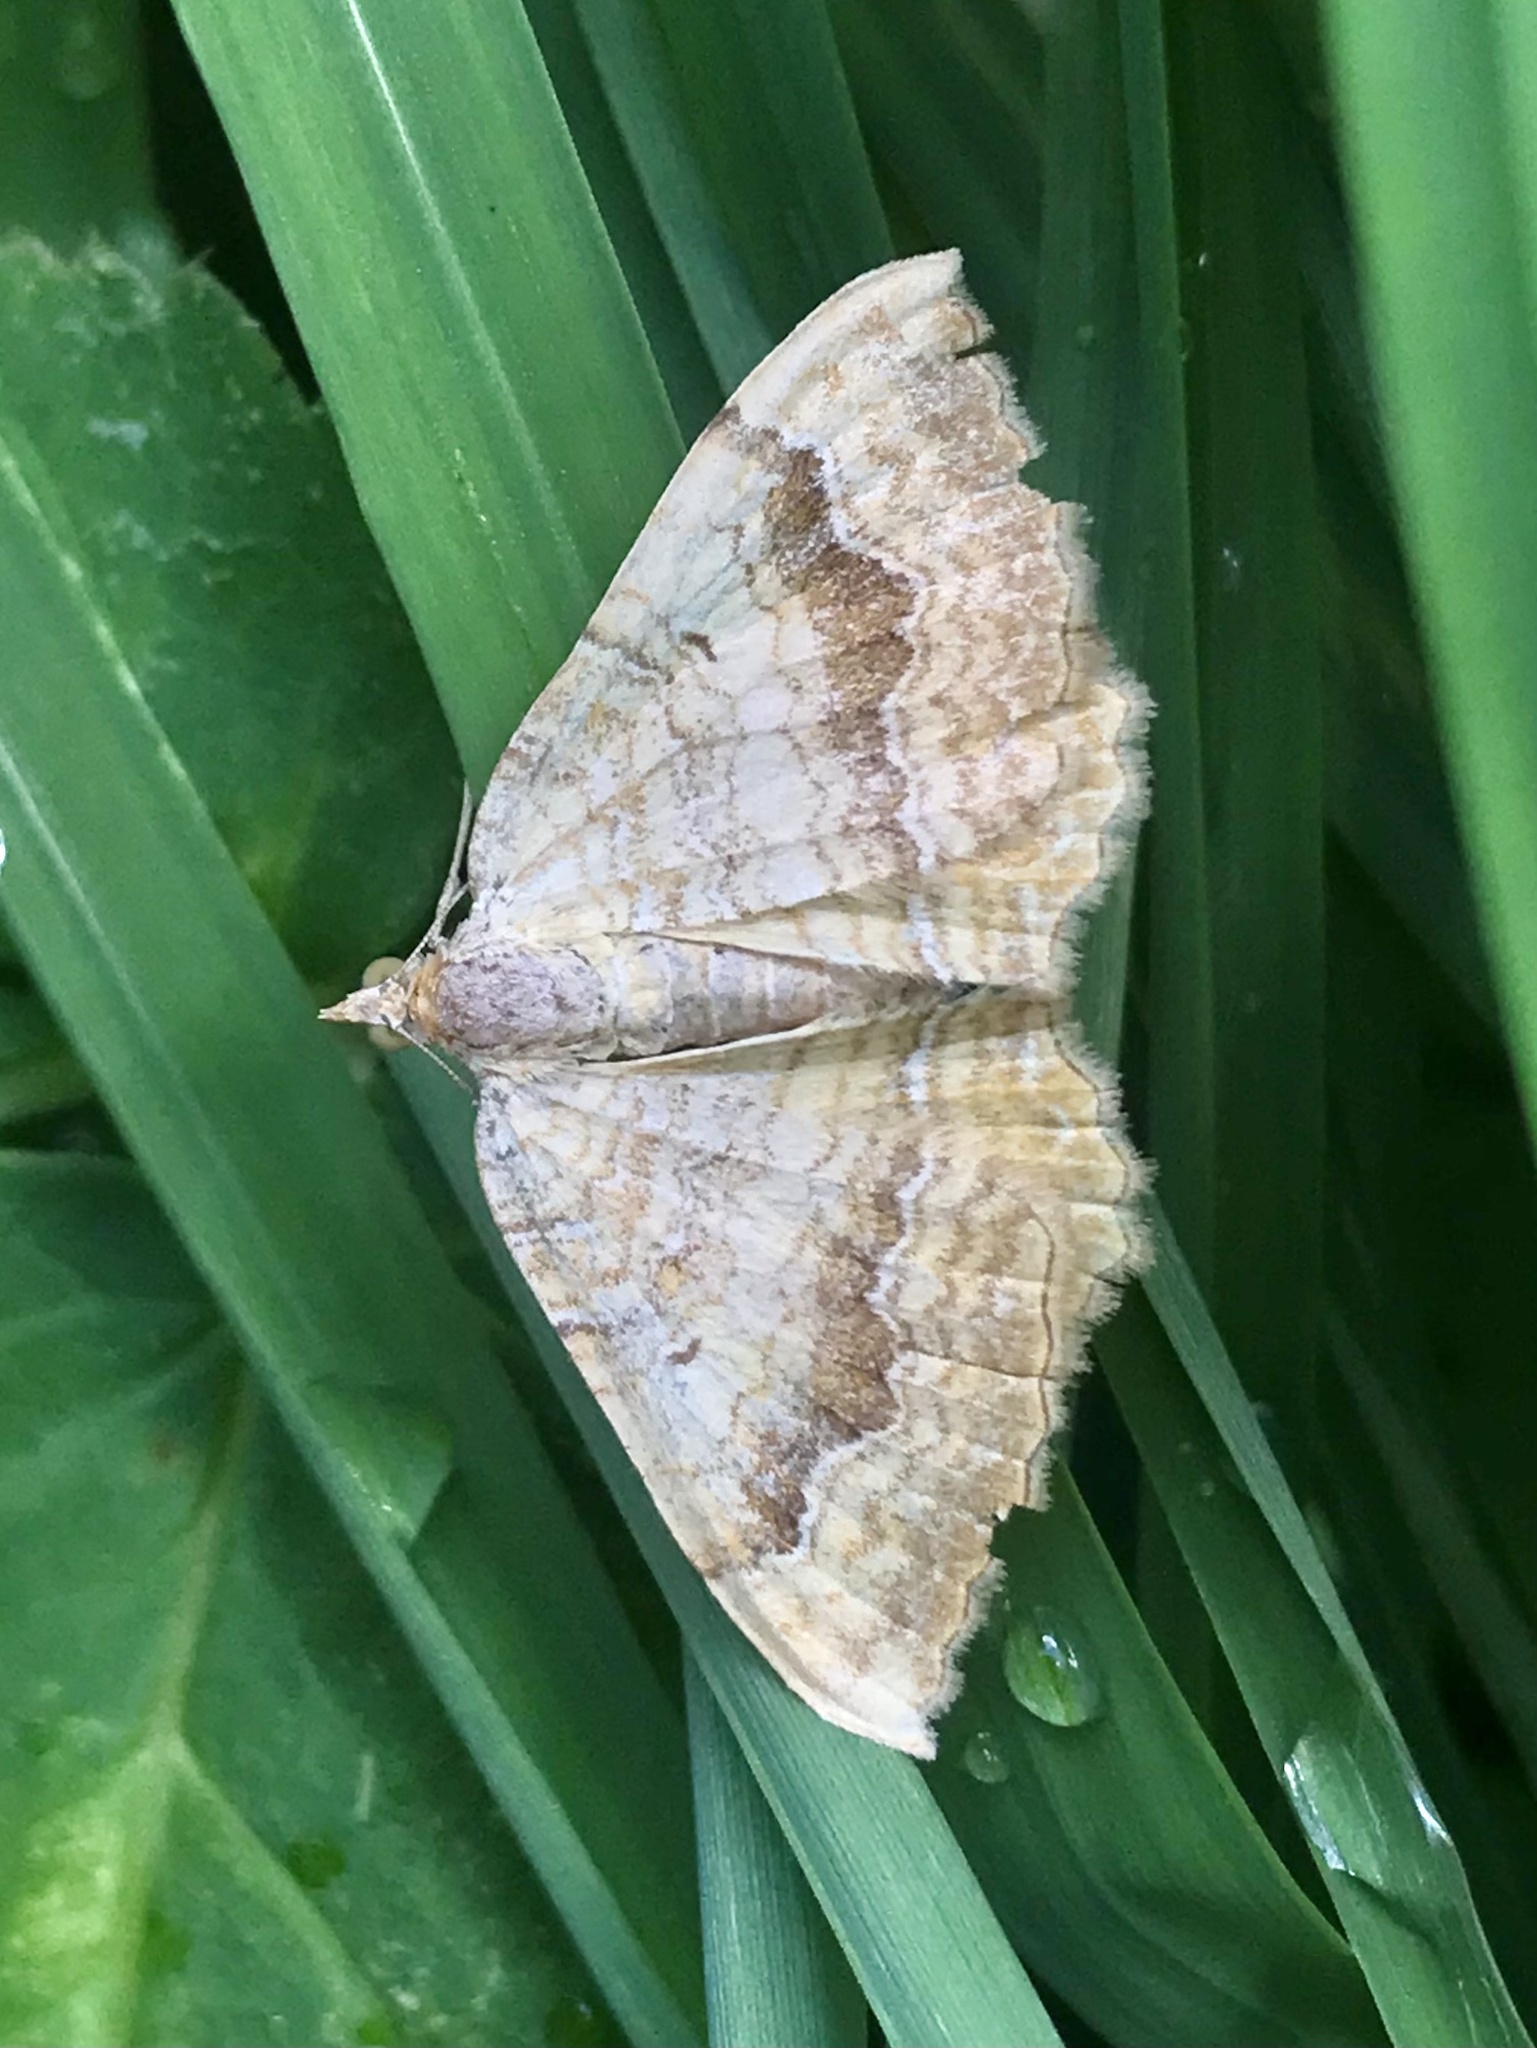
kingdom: Animalia
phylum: Arthropoda
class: Insecta
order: Lepidoptera
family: Geometridae
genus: Camptogramma
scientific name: Camptogramma bilineata
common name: Yellow shell
